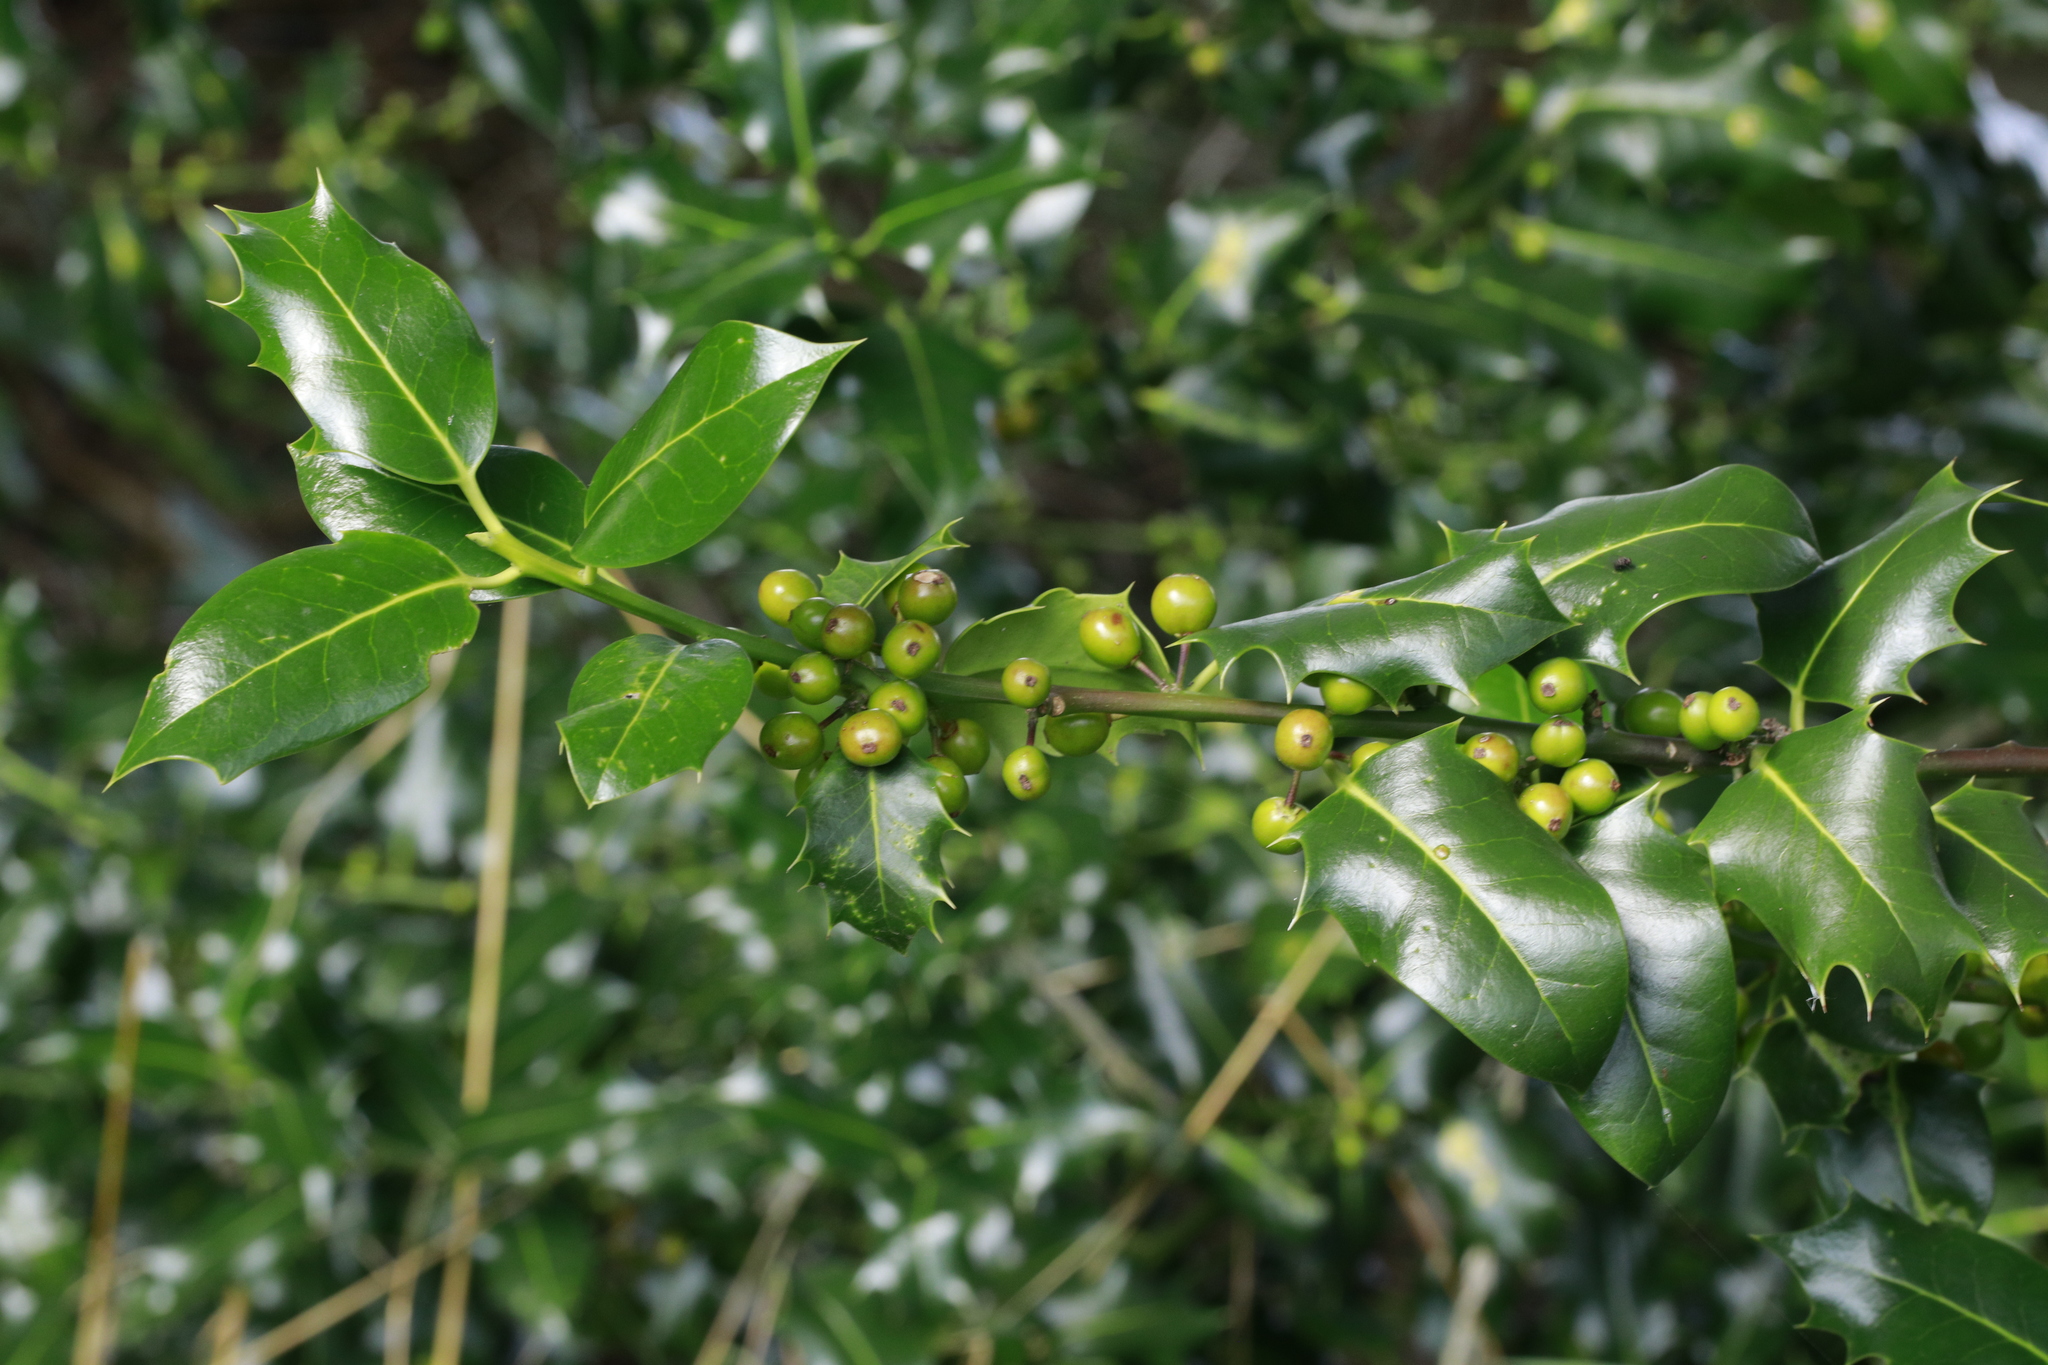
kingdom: Plantae
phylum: Tracheophyta
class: Magnoliopsida
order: Aquifoliales
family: Aquifoliaceae
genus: Ilex
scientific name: Ilex aquifolium
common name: English holly
